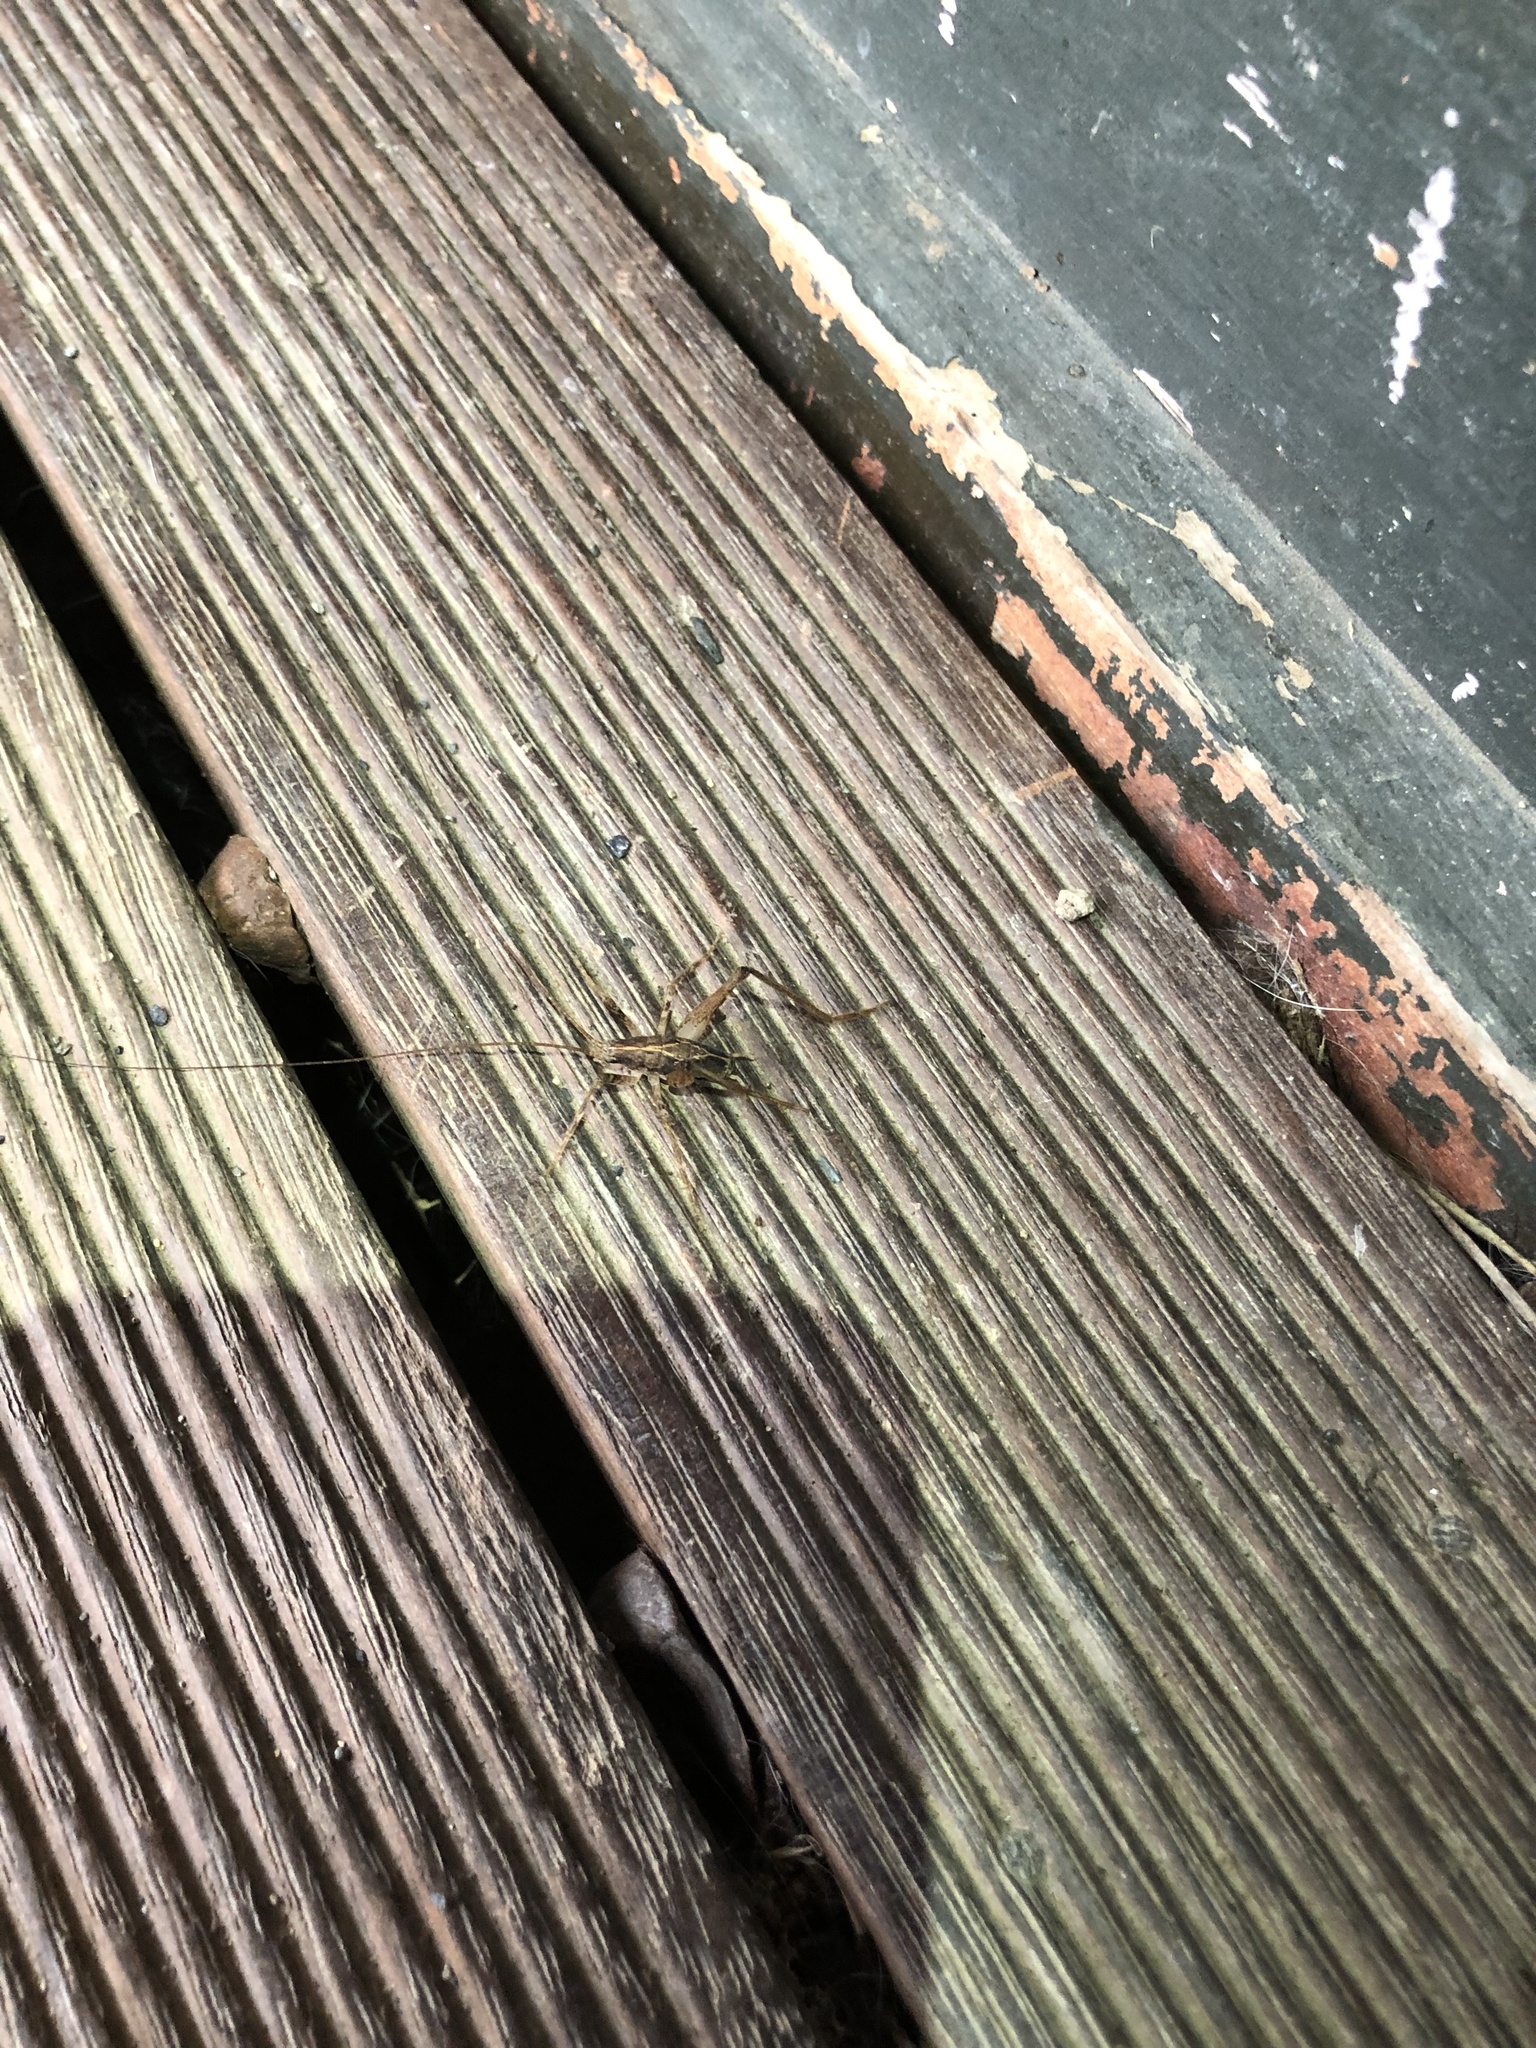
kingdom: Animalia
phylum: Arthropoda
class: Insecta
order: Orthoptera
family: Rhaphidophoridae
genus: Isoplectron
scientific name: Isoplectron armatum
